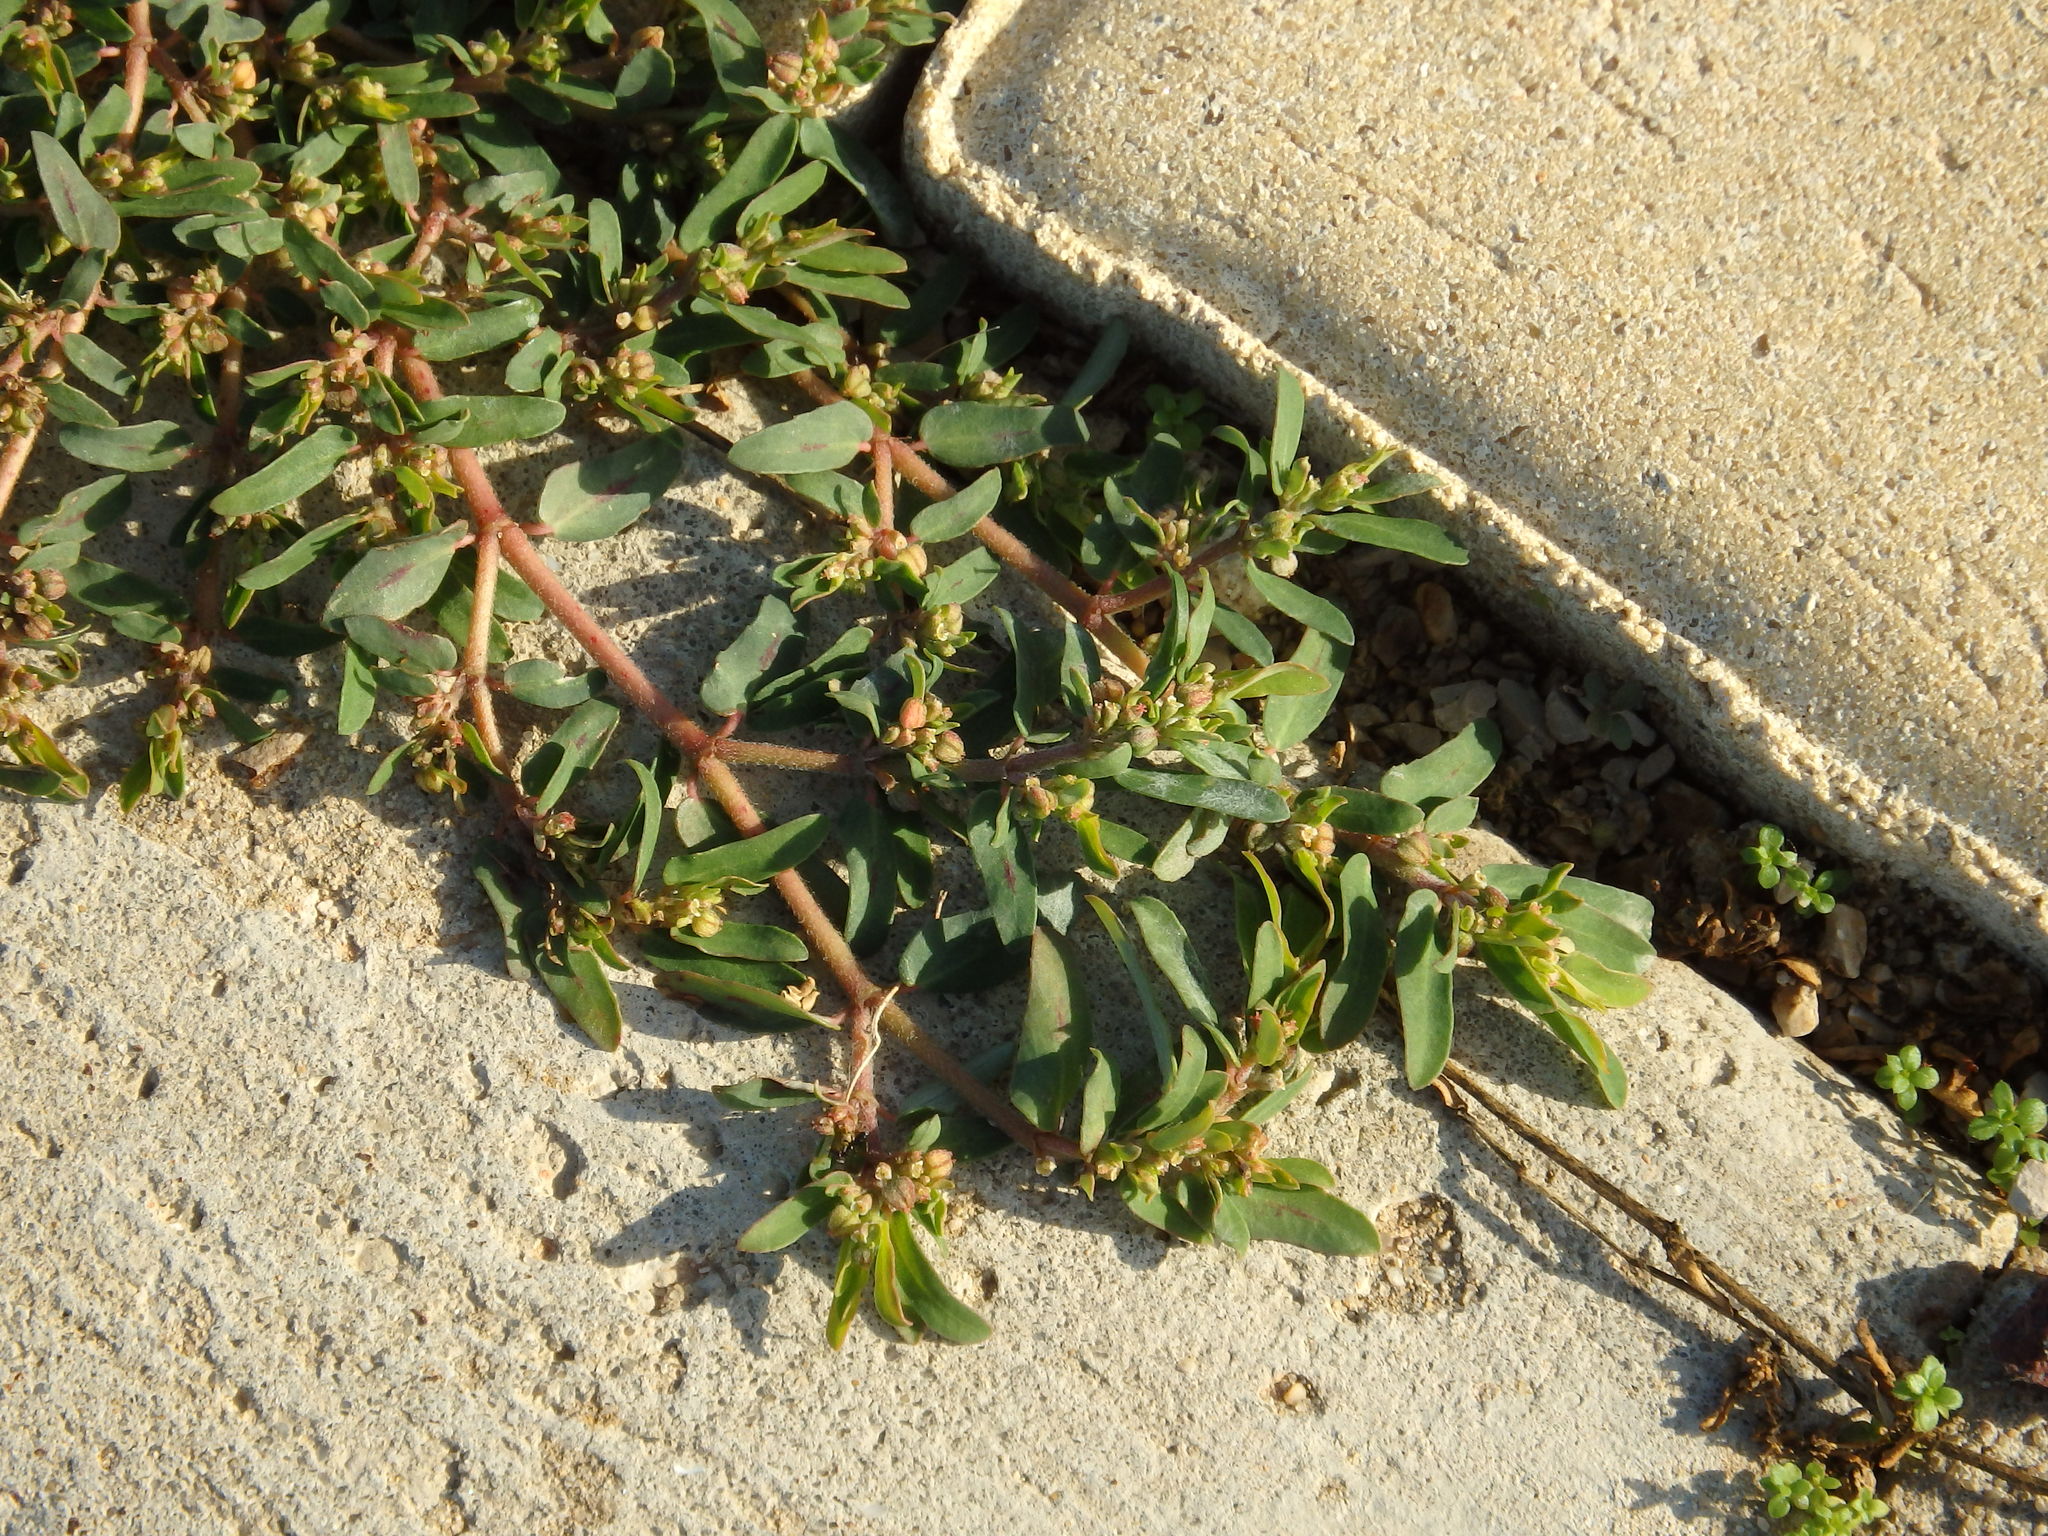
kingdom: Plantae
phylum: Tracheophyta
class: Magnoliopsida
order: Malpighiales
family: Euphorbiaceae
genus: Euphorbia
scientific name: Euphorbia maculata
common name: Spotted spurge
